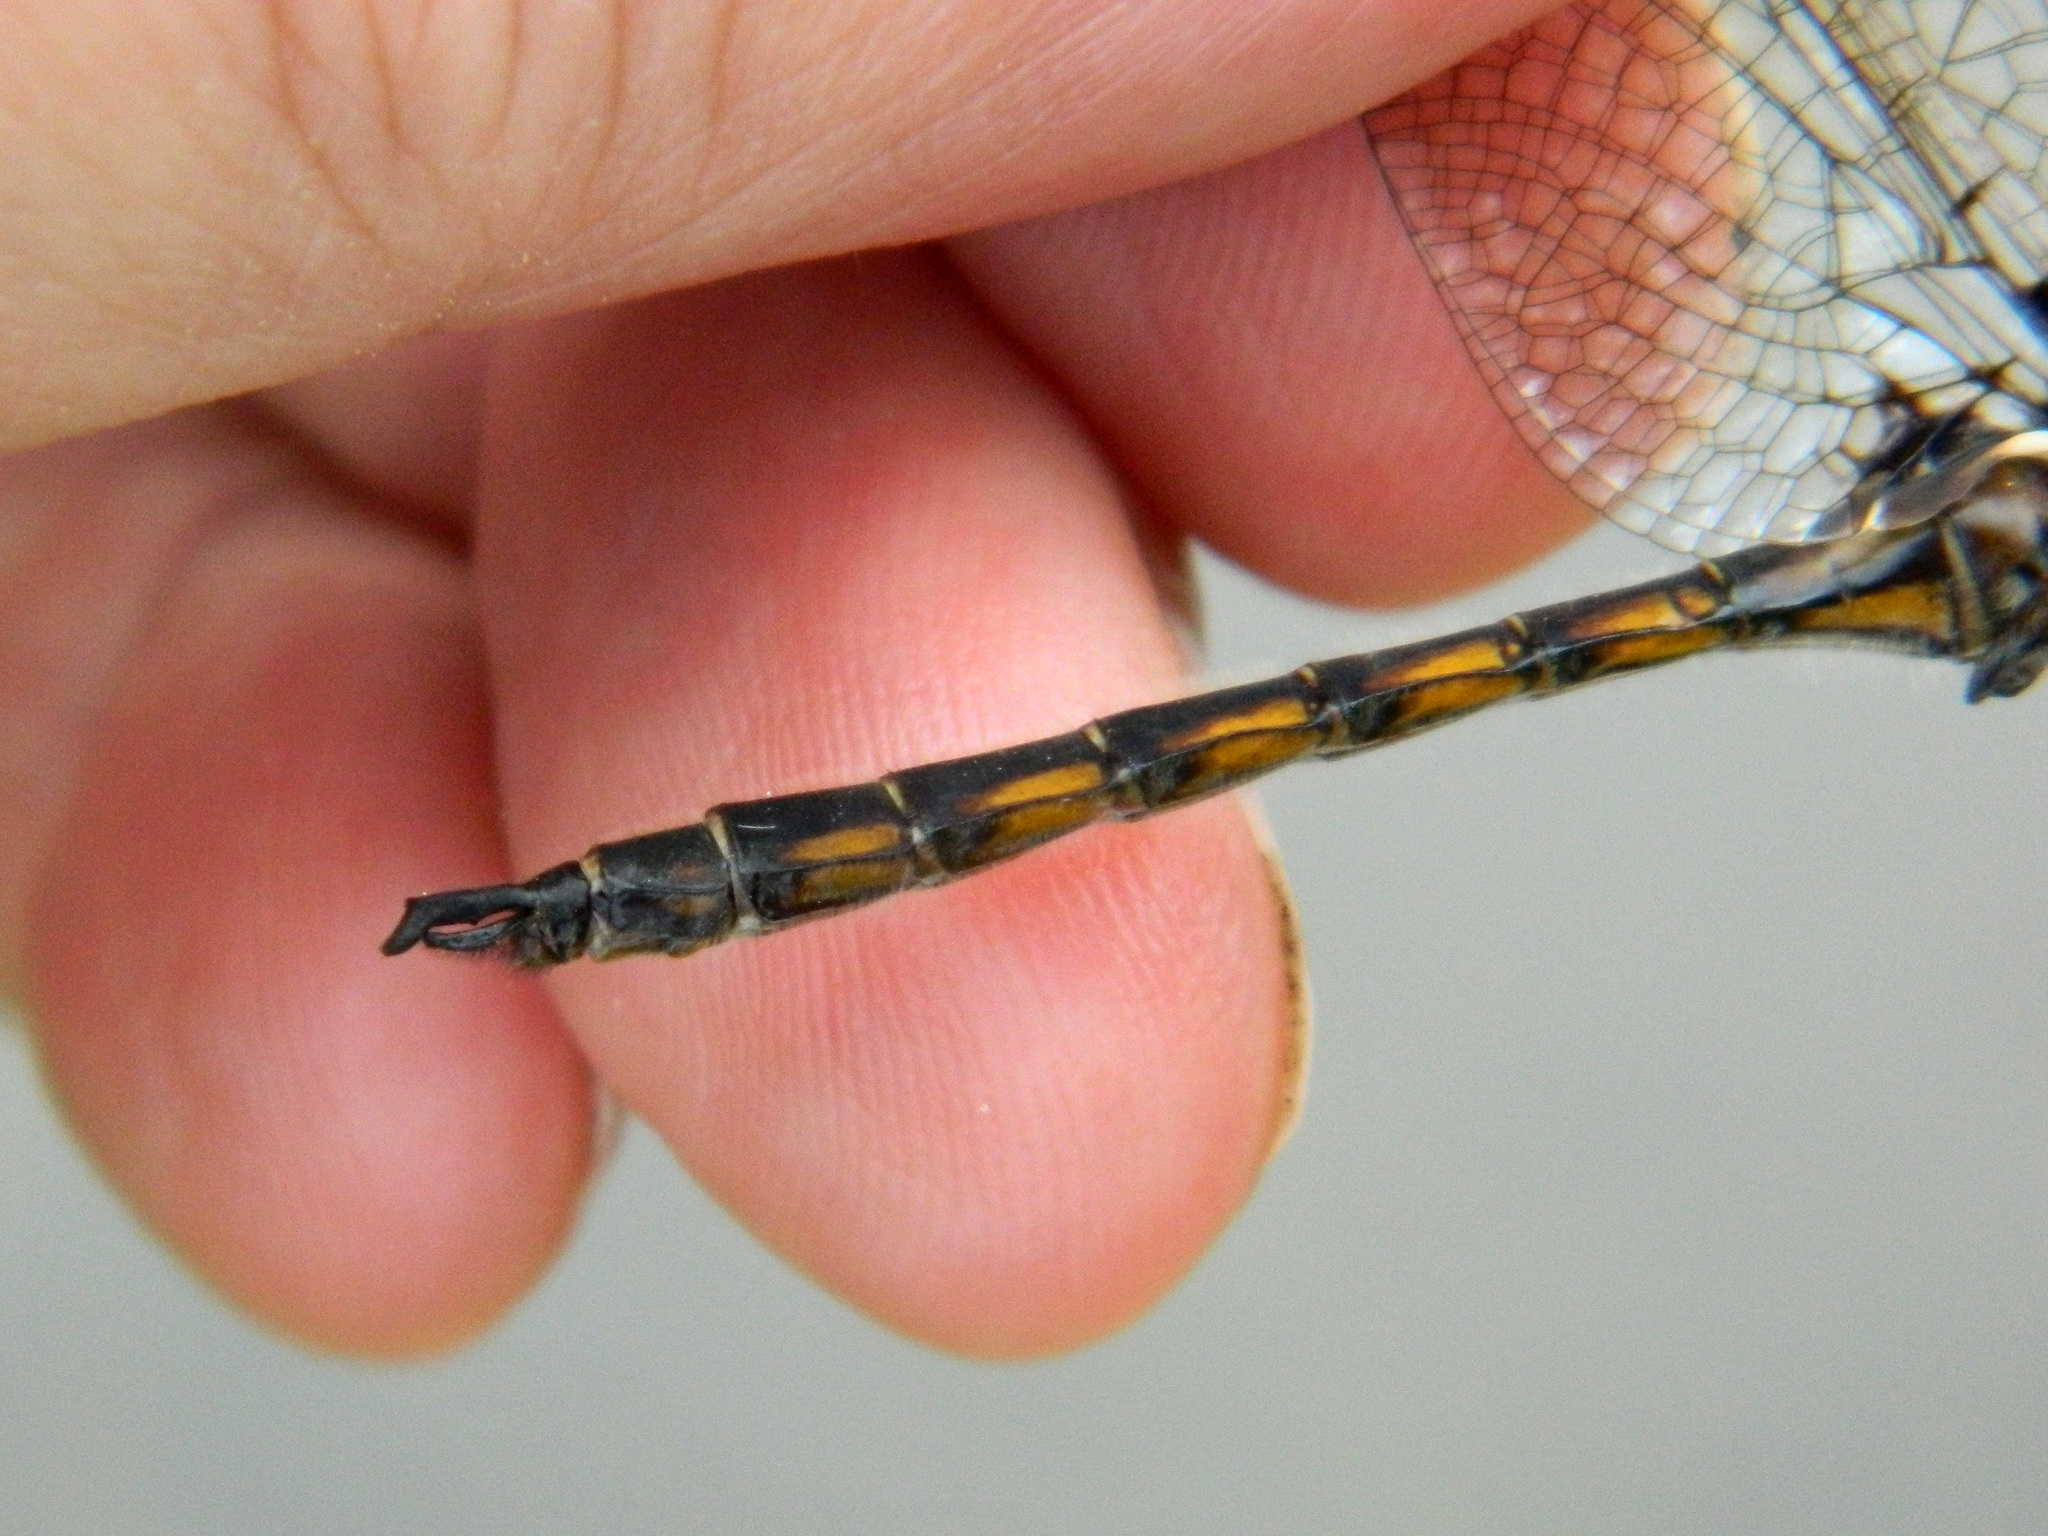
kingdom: Animalia
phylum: Arthropoda
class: Insecta
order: Odonata
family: Corduliidae
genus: Epitheca
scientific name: Epitheca canis
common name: Beaverpond baskettail
